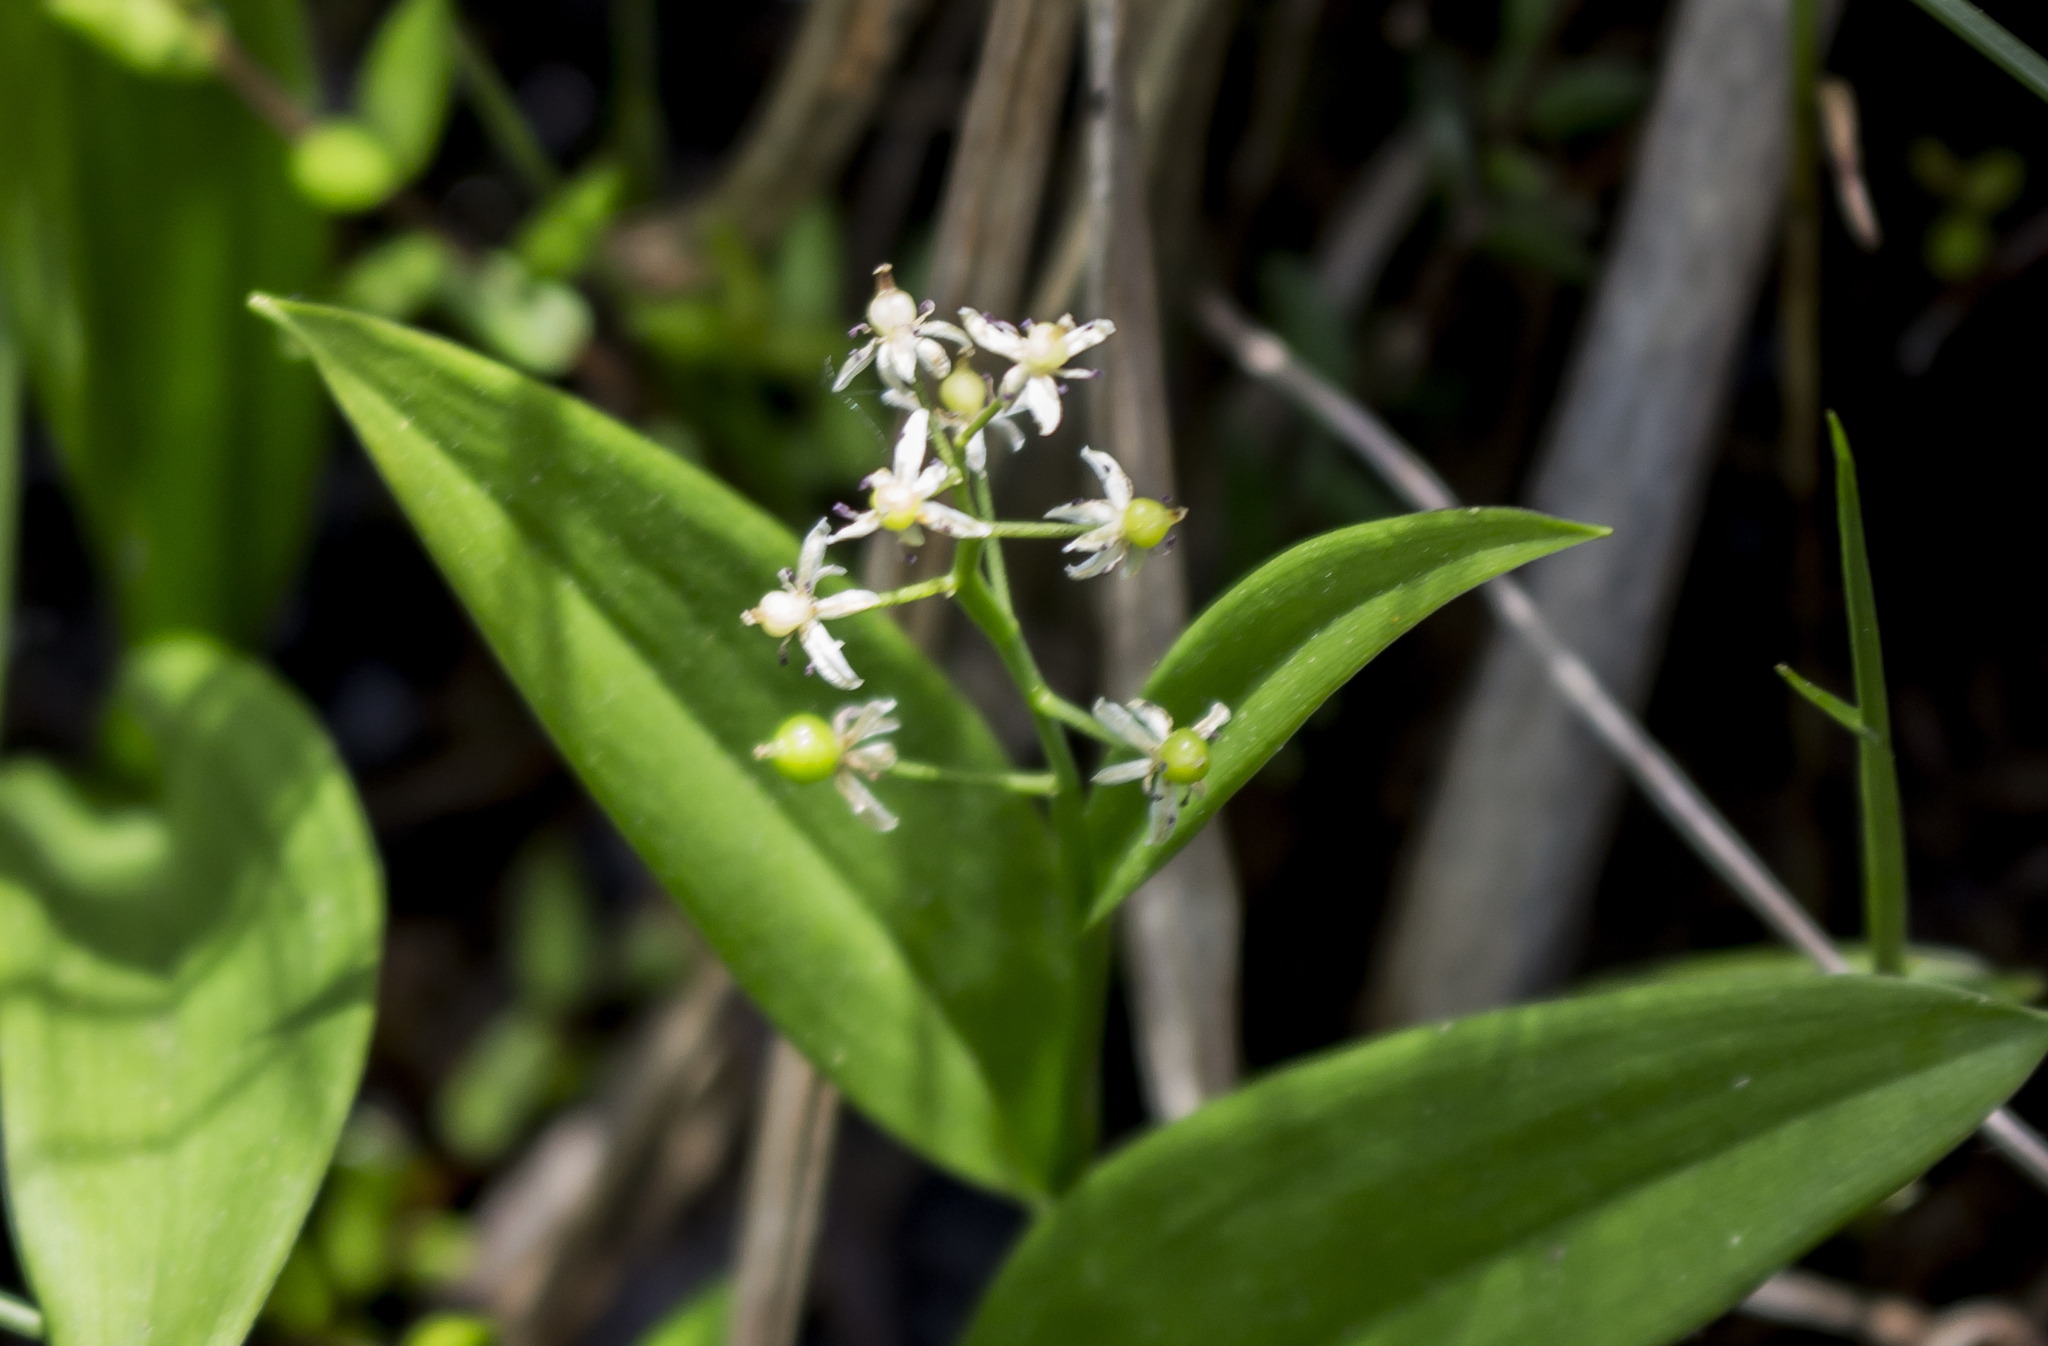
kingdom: Plantae
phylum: Tracheophyta
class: Liliopsida
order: Asparagales
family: Asparagaceae
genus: Maianthemum
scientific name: Maianthemum trifolium
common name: Swamp false solomon's seal
